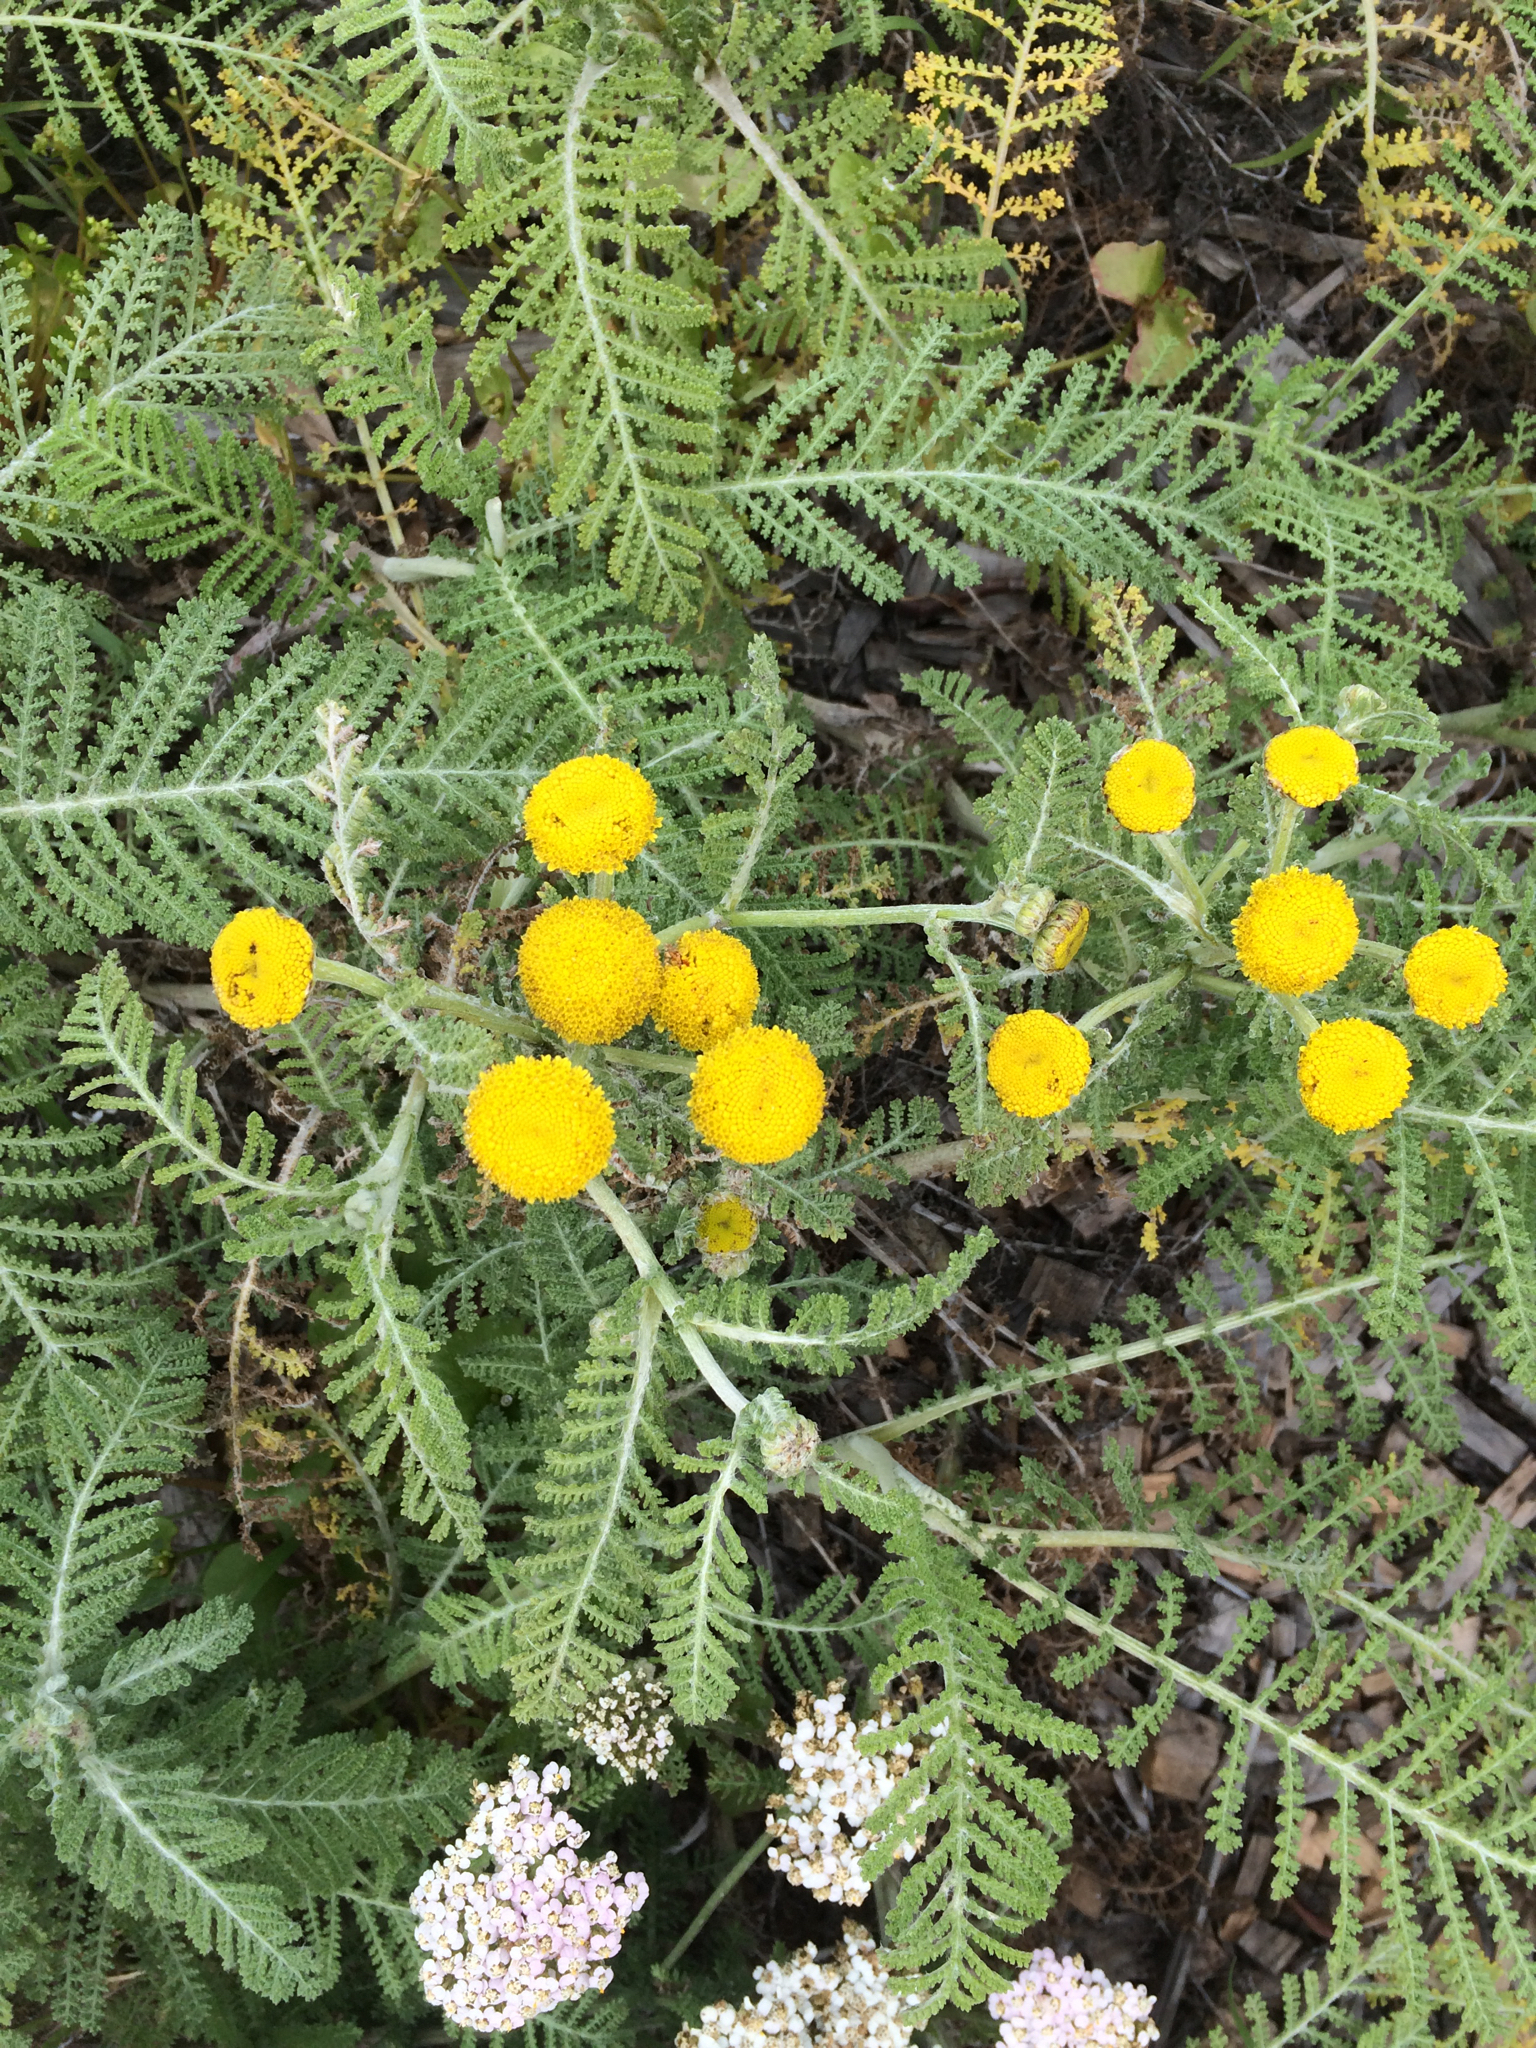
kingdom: Plantae
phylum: Tracheophyta
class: Magnoliopsida
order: Asterales
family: Asteraceae
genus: Tanacetum
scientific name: Tanacetum bipinnatum
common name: Dwarf tansy
